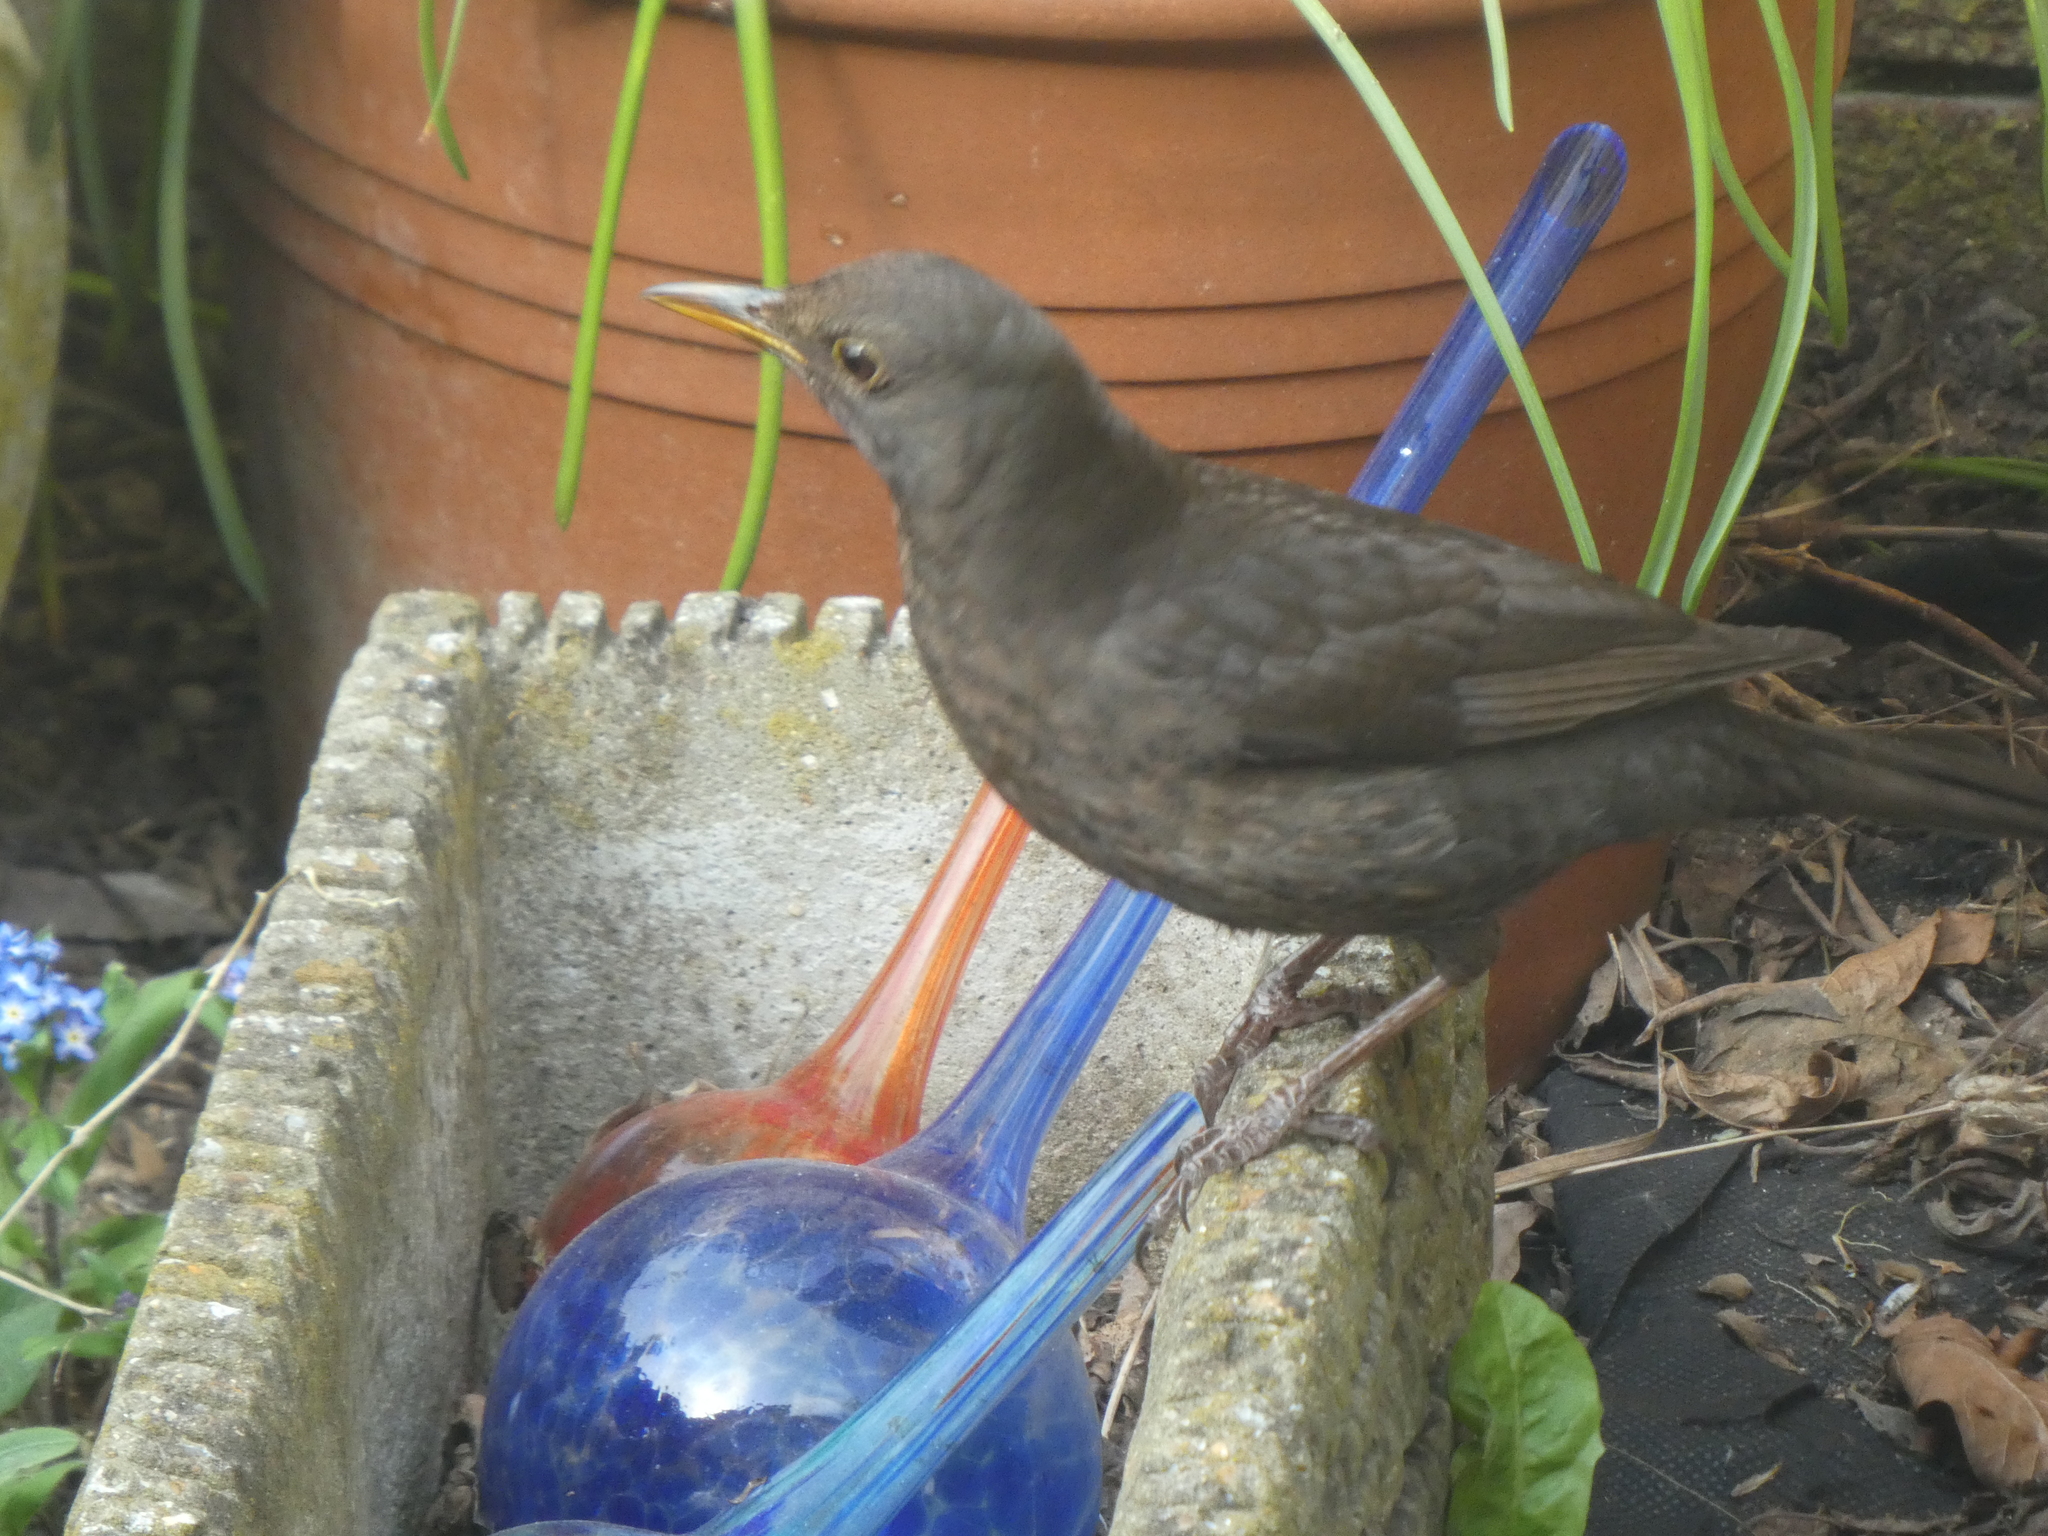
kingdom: Animalia
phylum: Chordata
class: Aves
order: Passeriformes
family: Turdidae
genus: Turdus
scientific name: Turdus merula
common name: Common blackbird
